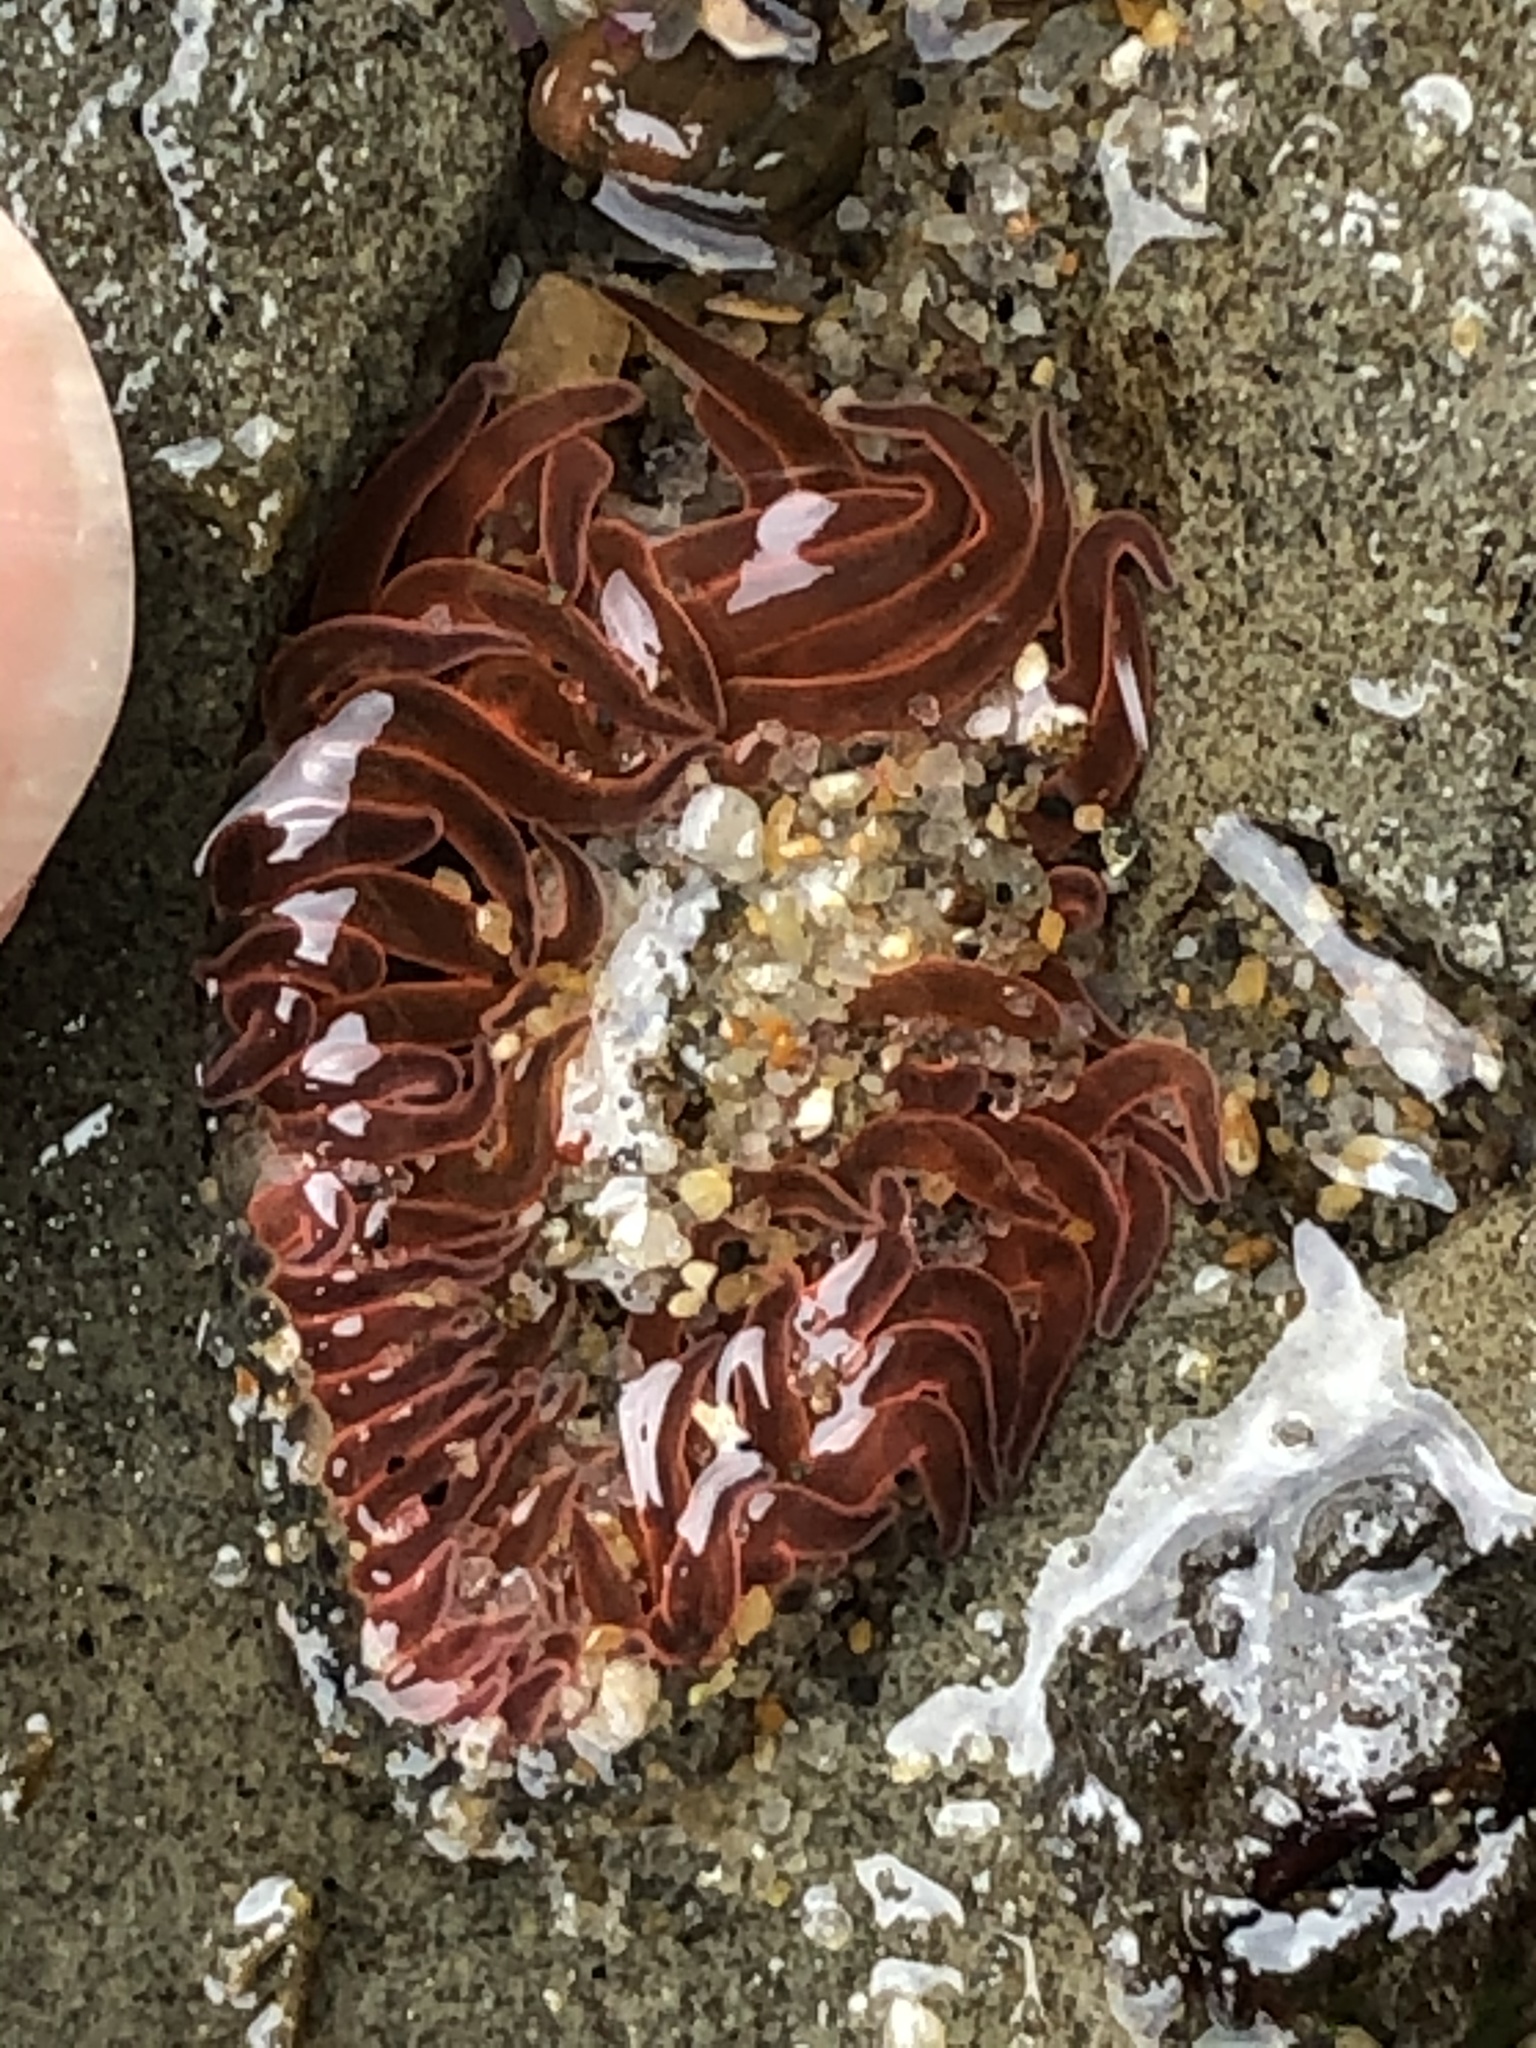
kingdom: Animalia
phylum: Cnidaria
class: Anthozoa
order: Actiniaria
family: Actiniidae
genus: Anthopleura
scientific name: Anthopleura artemisia
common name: Buried sea anemone
